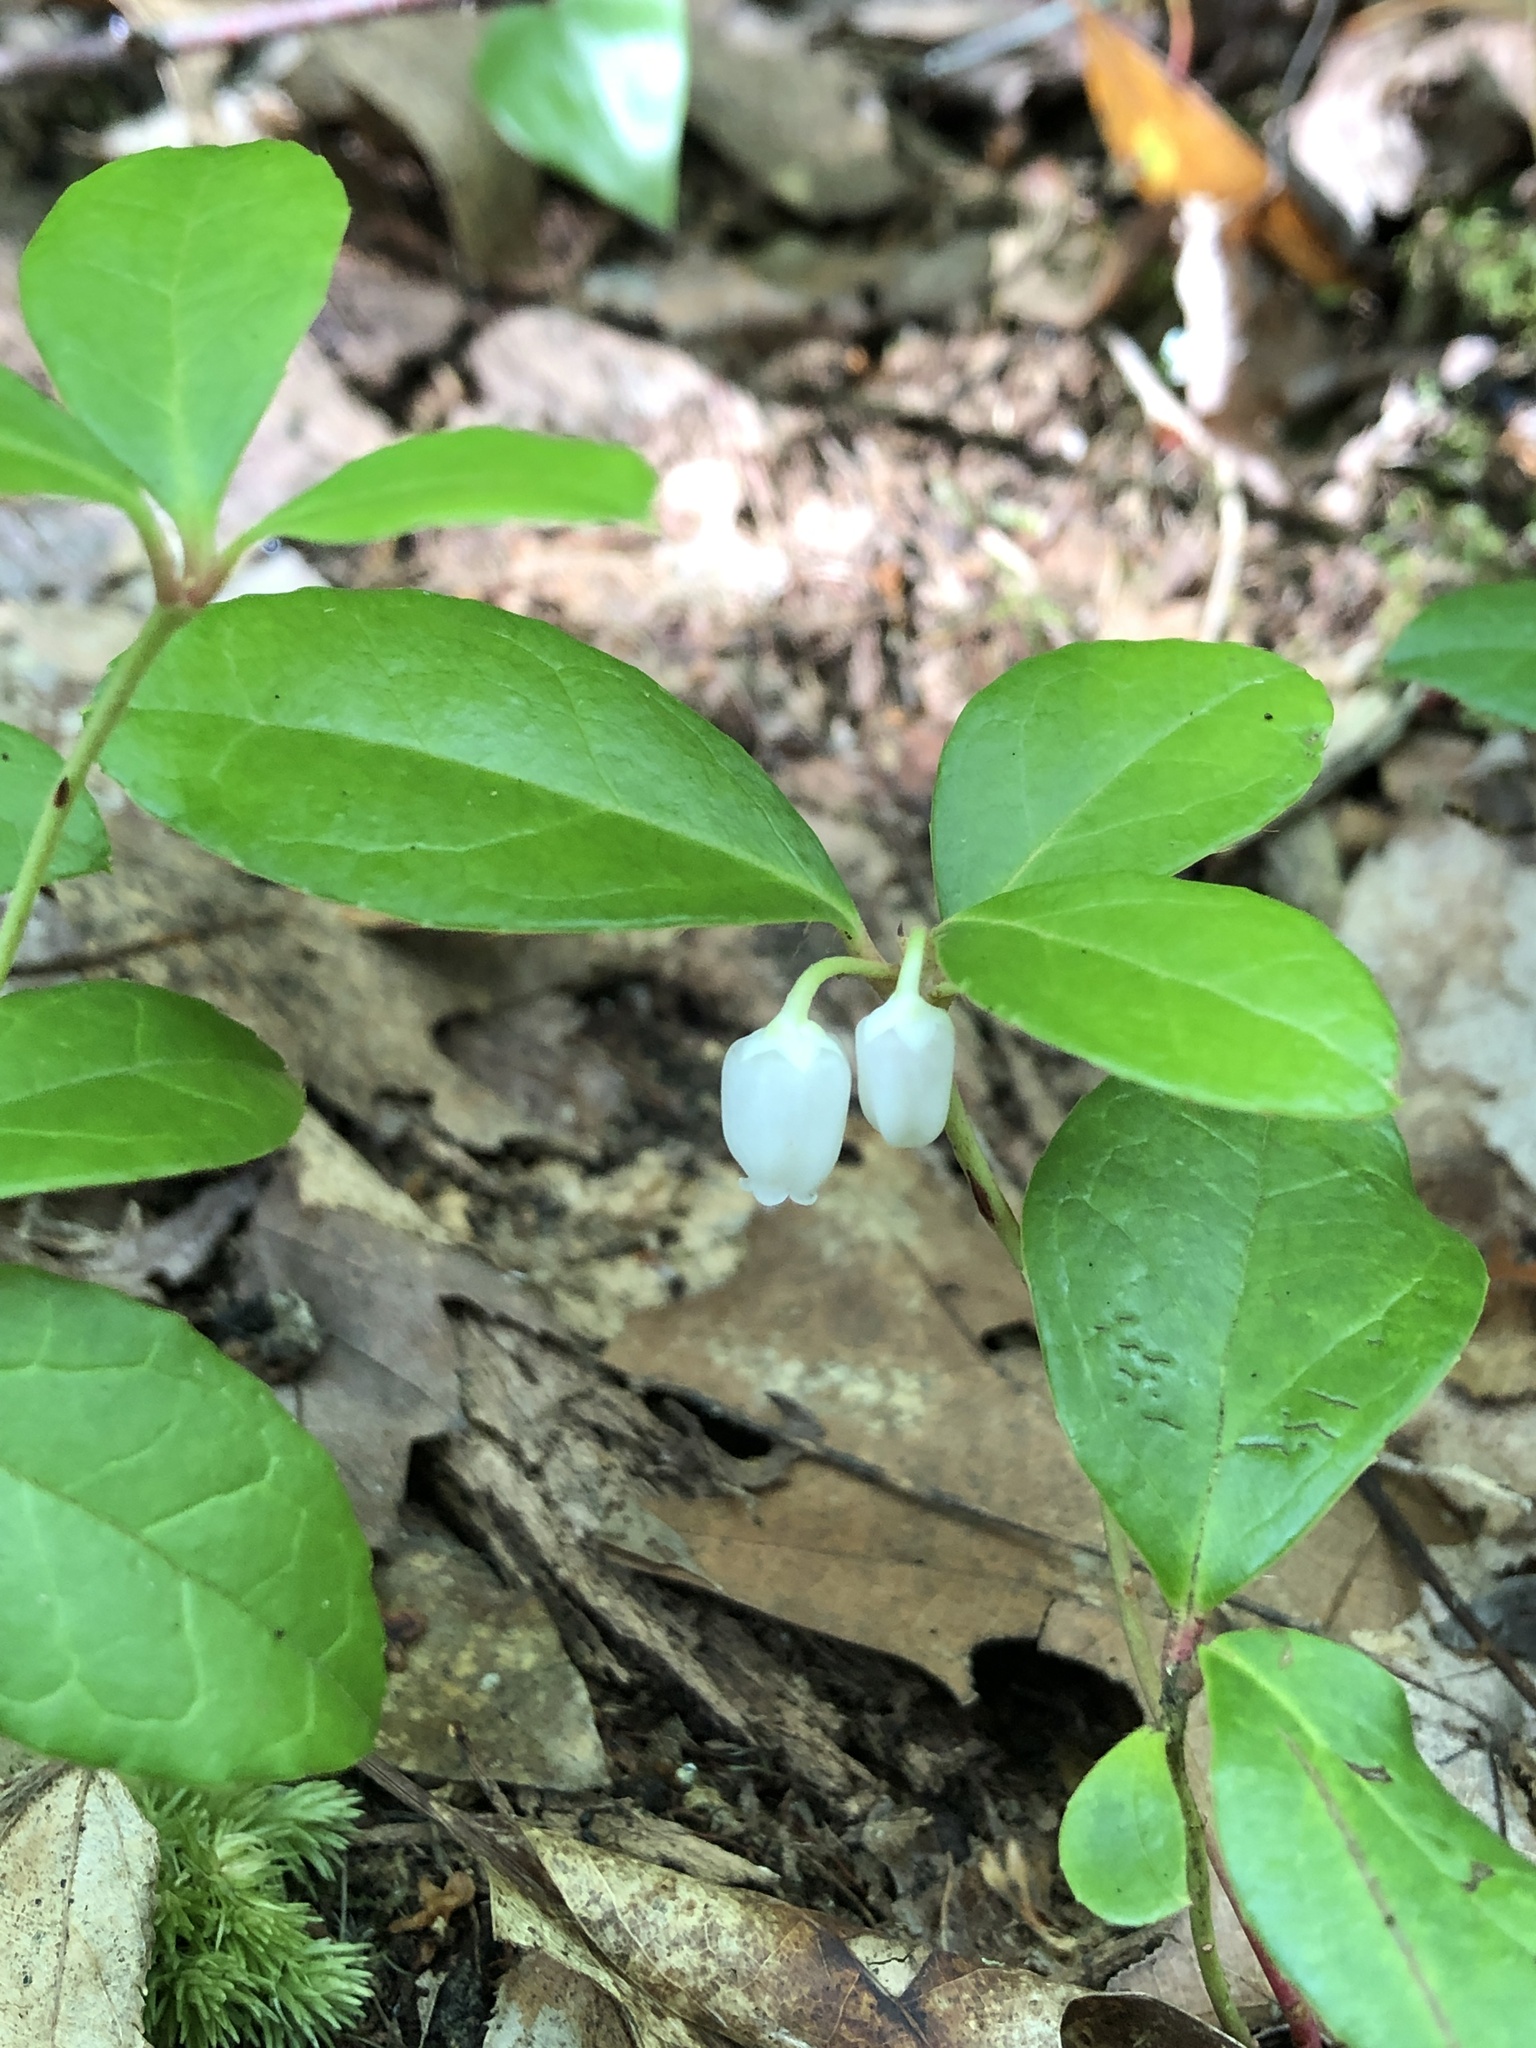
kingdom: Plantae
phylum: Tracheophyta
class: Magnoliopsida
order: Ericales
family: Ericaceae
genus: Gaultheria
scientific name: Gaultheria procumbens
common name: Checkerberry
